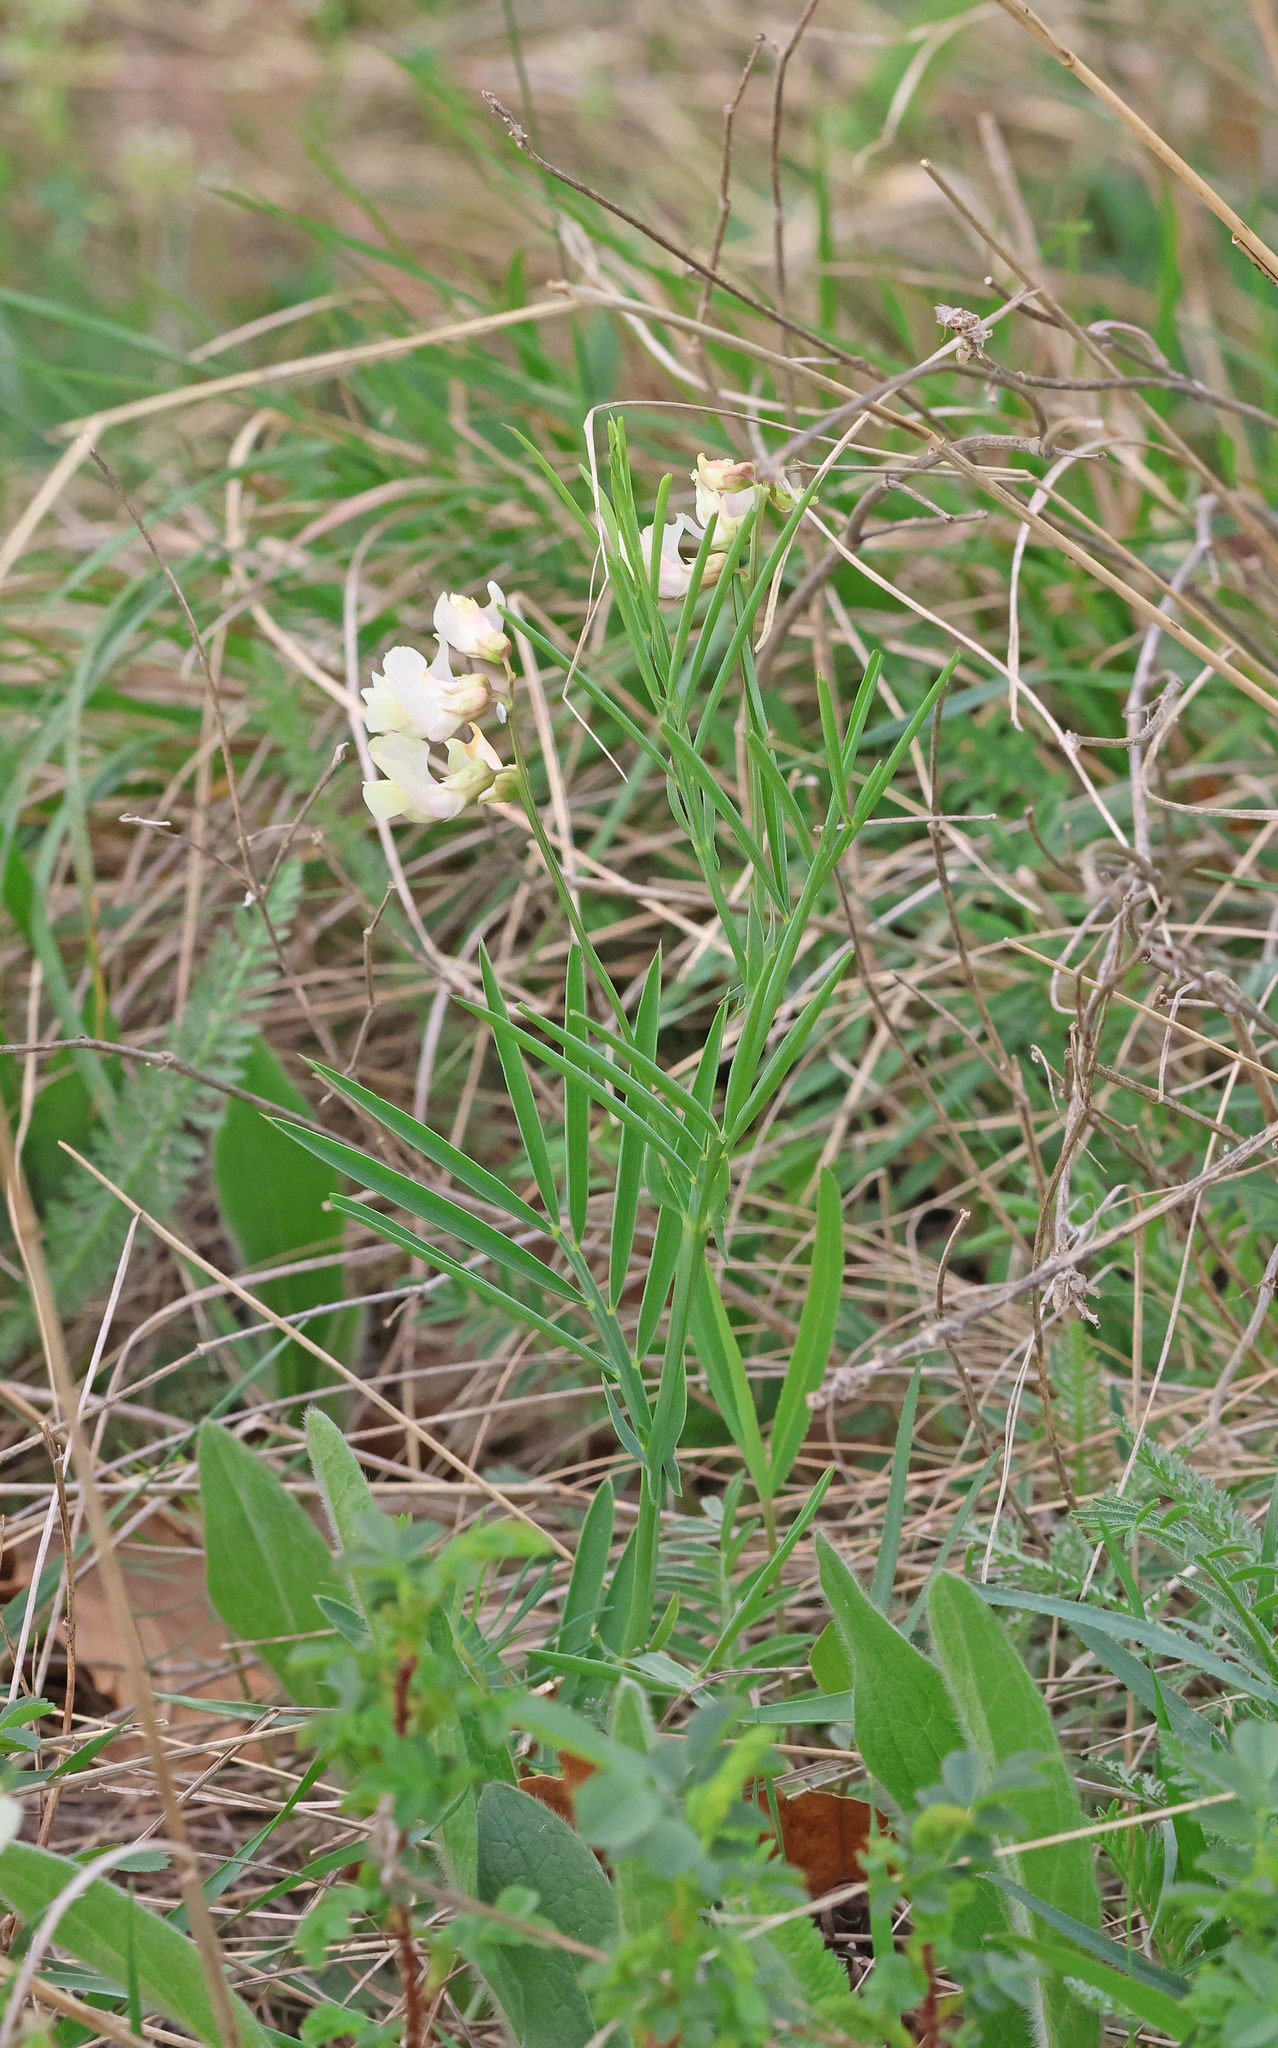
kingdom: Plantae
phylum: Tracheophyta
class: Magnoliopsida
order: Fabales
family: Fabaceae
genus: Lathyrus
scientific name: Lathyrus pannonicus
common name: Pea
